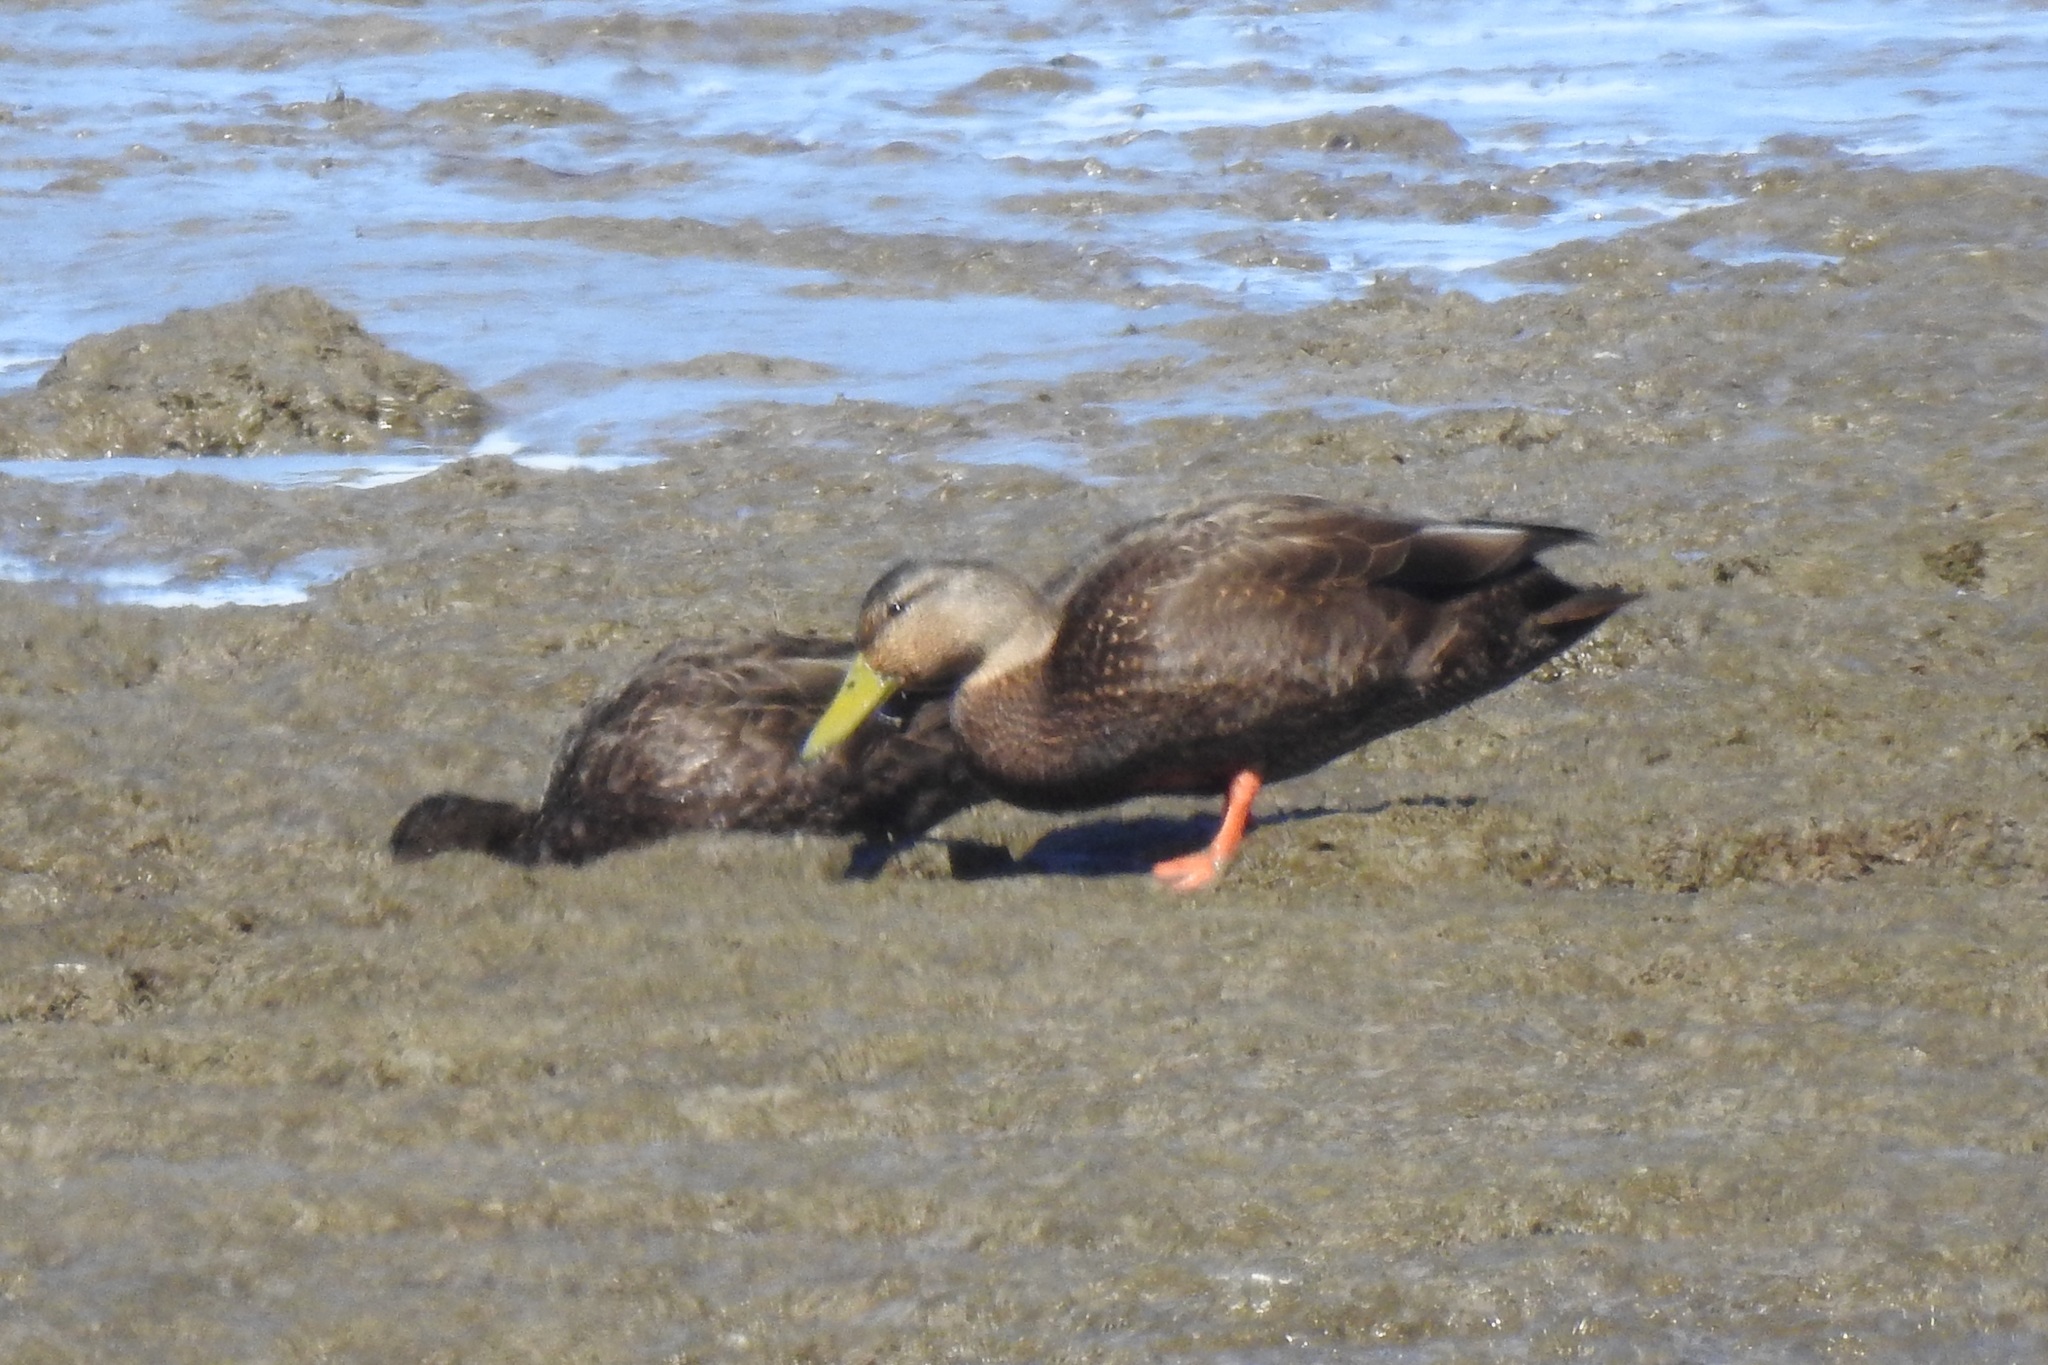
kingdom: Animalia
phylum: Chordata
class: Aves
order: Anseriformes
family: Anatidae
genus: Anas
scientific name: Anas rubripes
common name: American black duck
